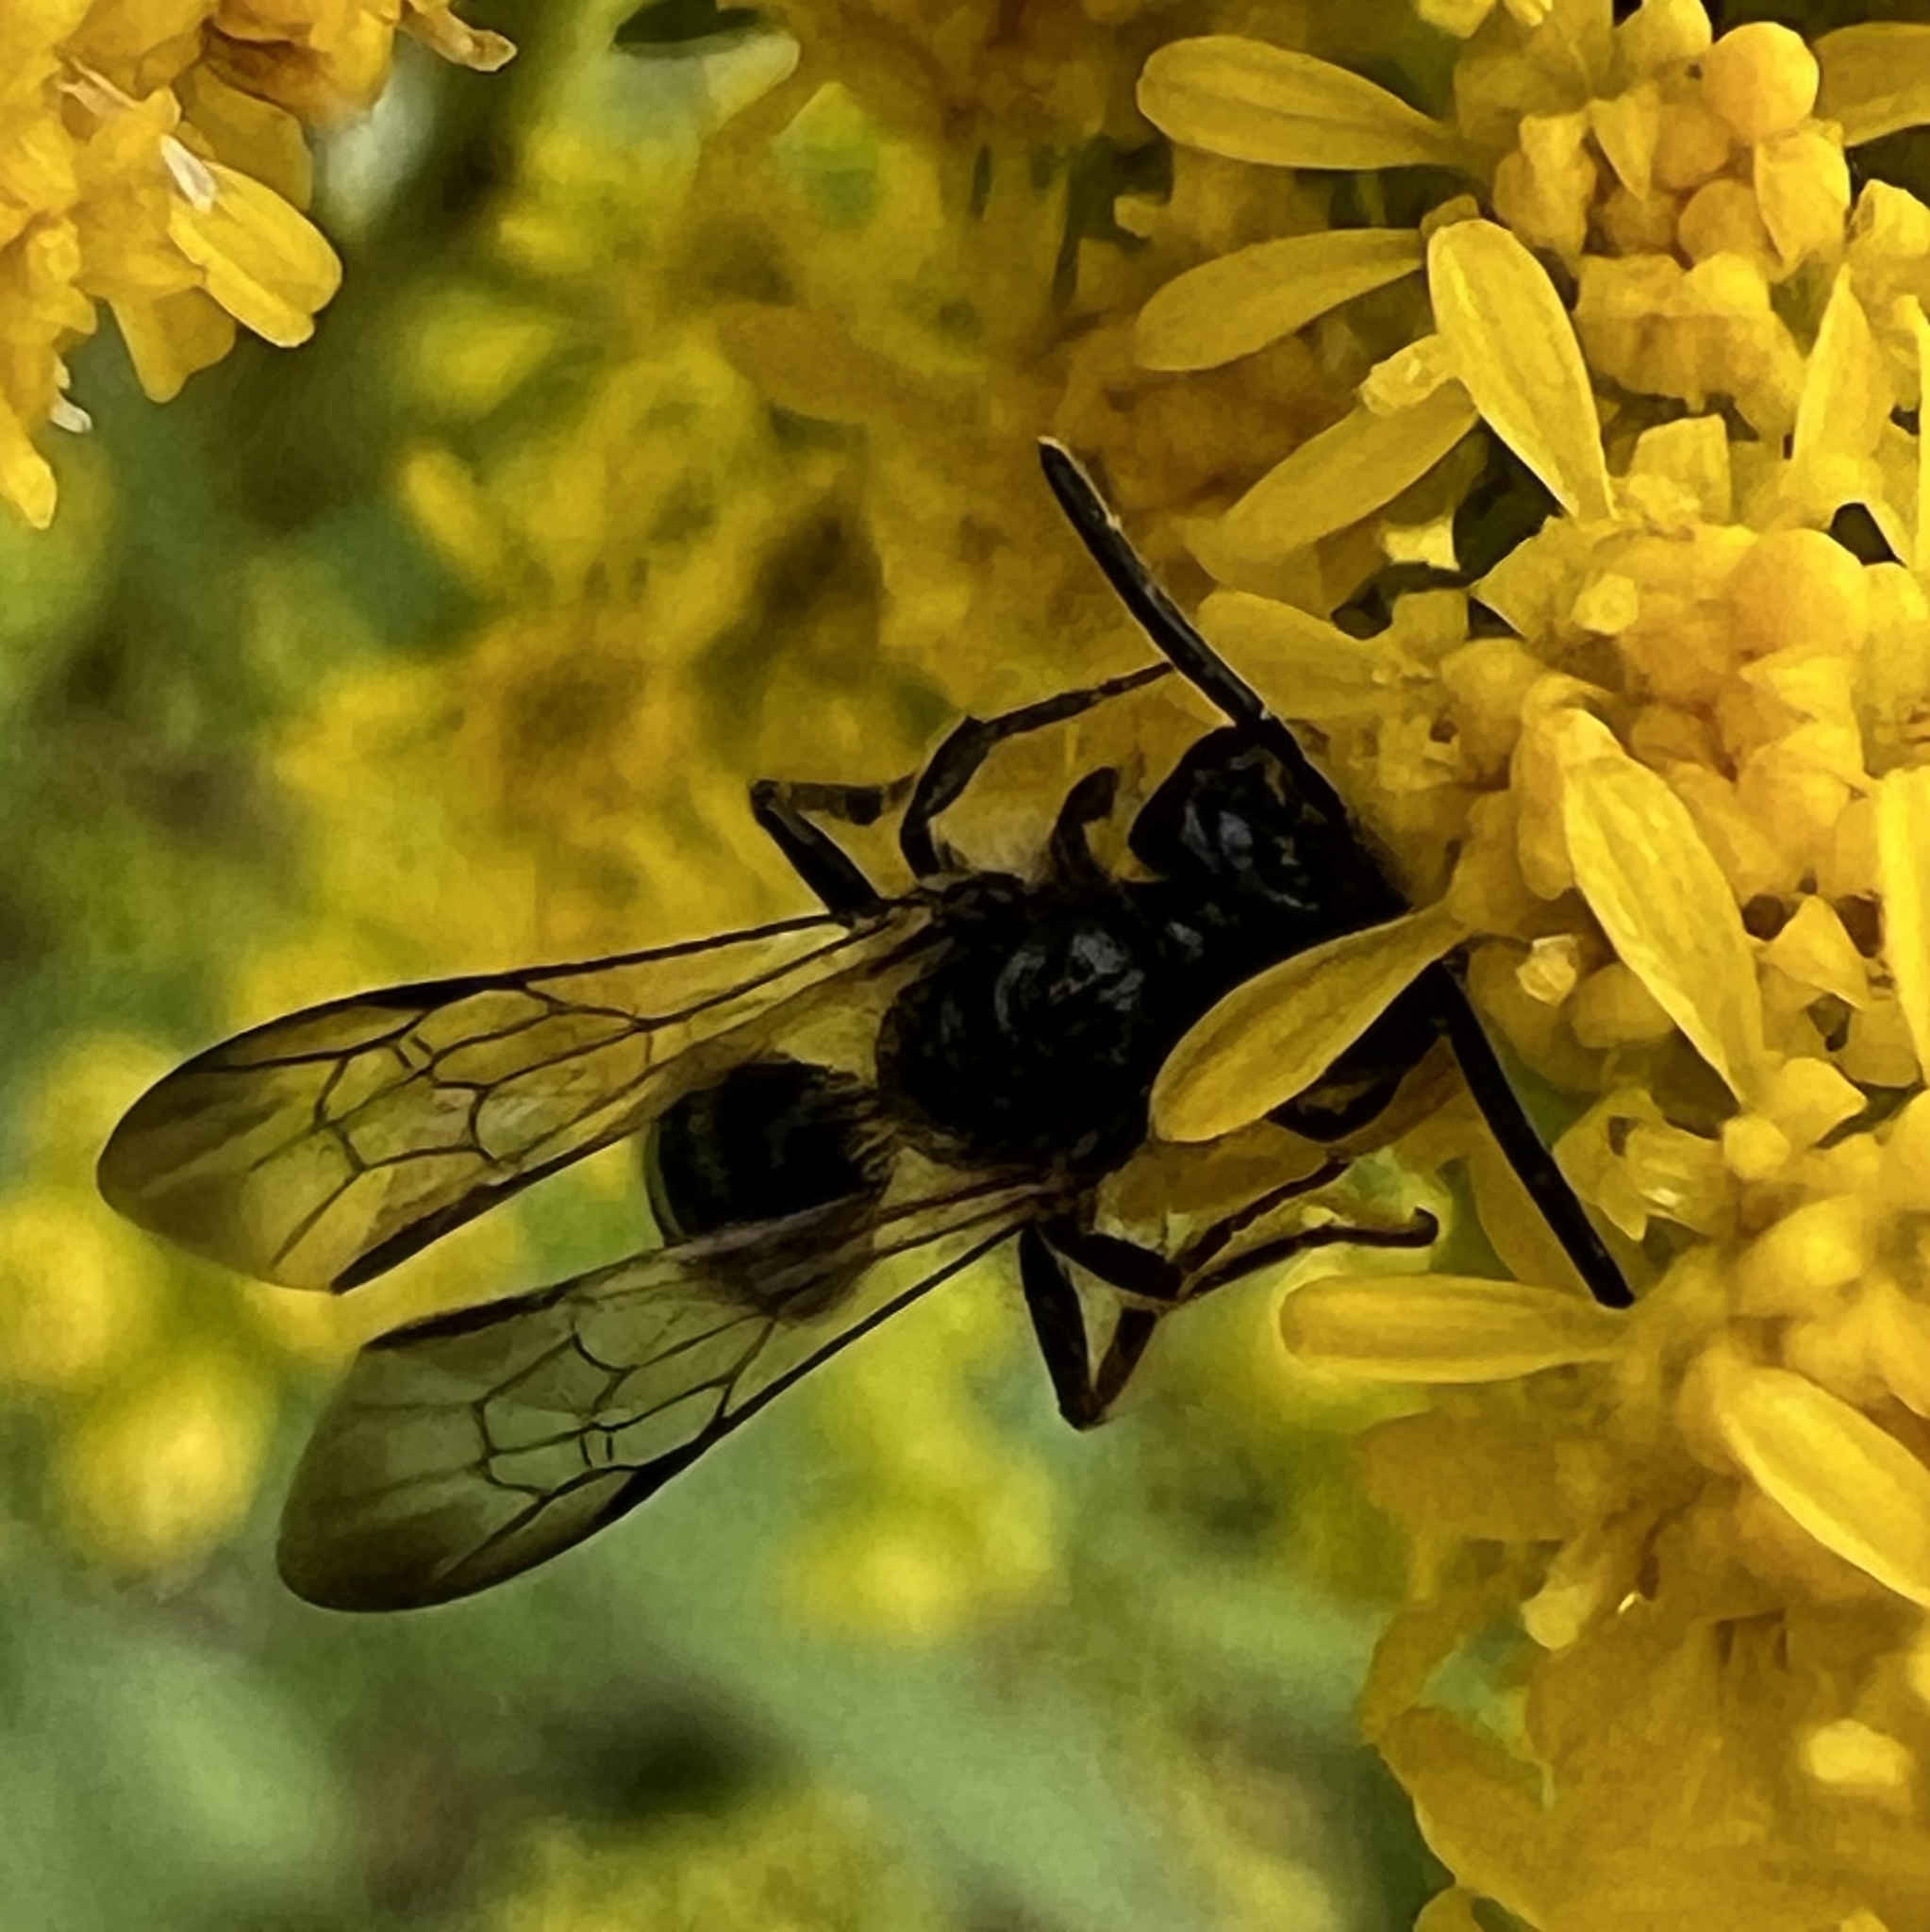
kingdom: Animalia
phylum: Arthropoda
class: Insecta
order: Hymenoptera
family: Andrenidae
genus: Andrena
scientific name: Andrena nubecula
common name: Cloudy-winged mining bee
